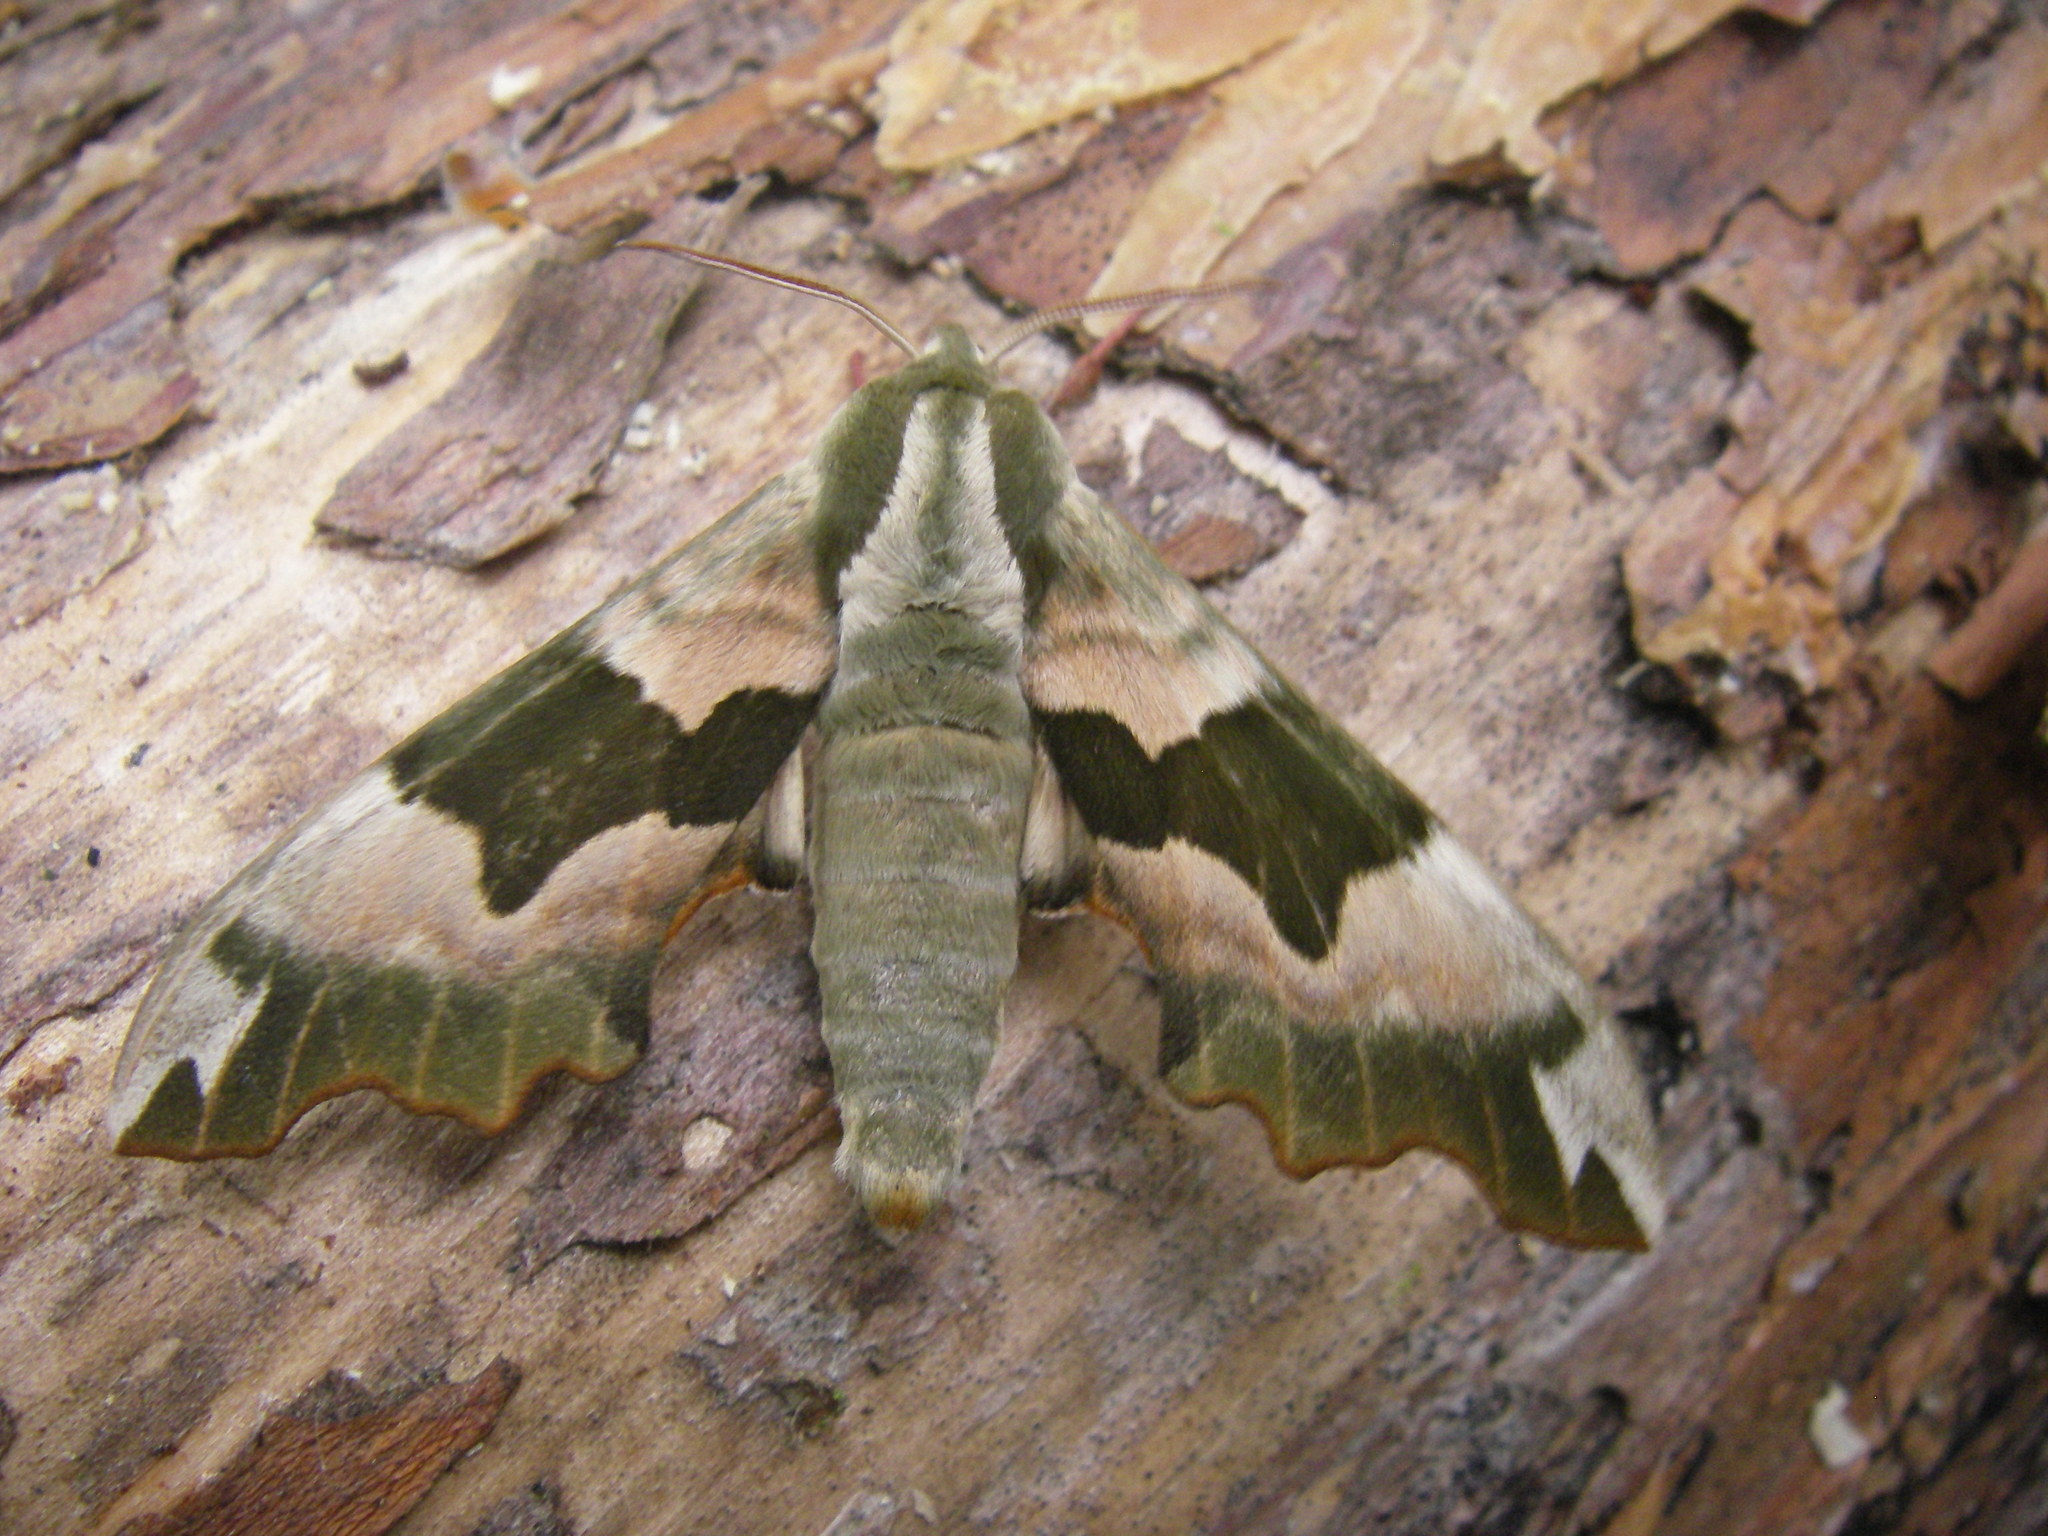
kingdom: Animalia
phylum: Arthropoda
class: Insecta
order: Lepidoptera
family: Sphingidae
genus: Mimas
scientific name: Mimas tiliae
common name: Lime hawk-moth
